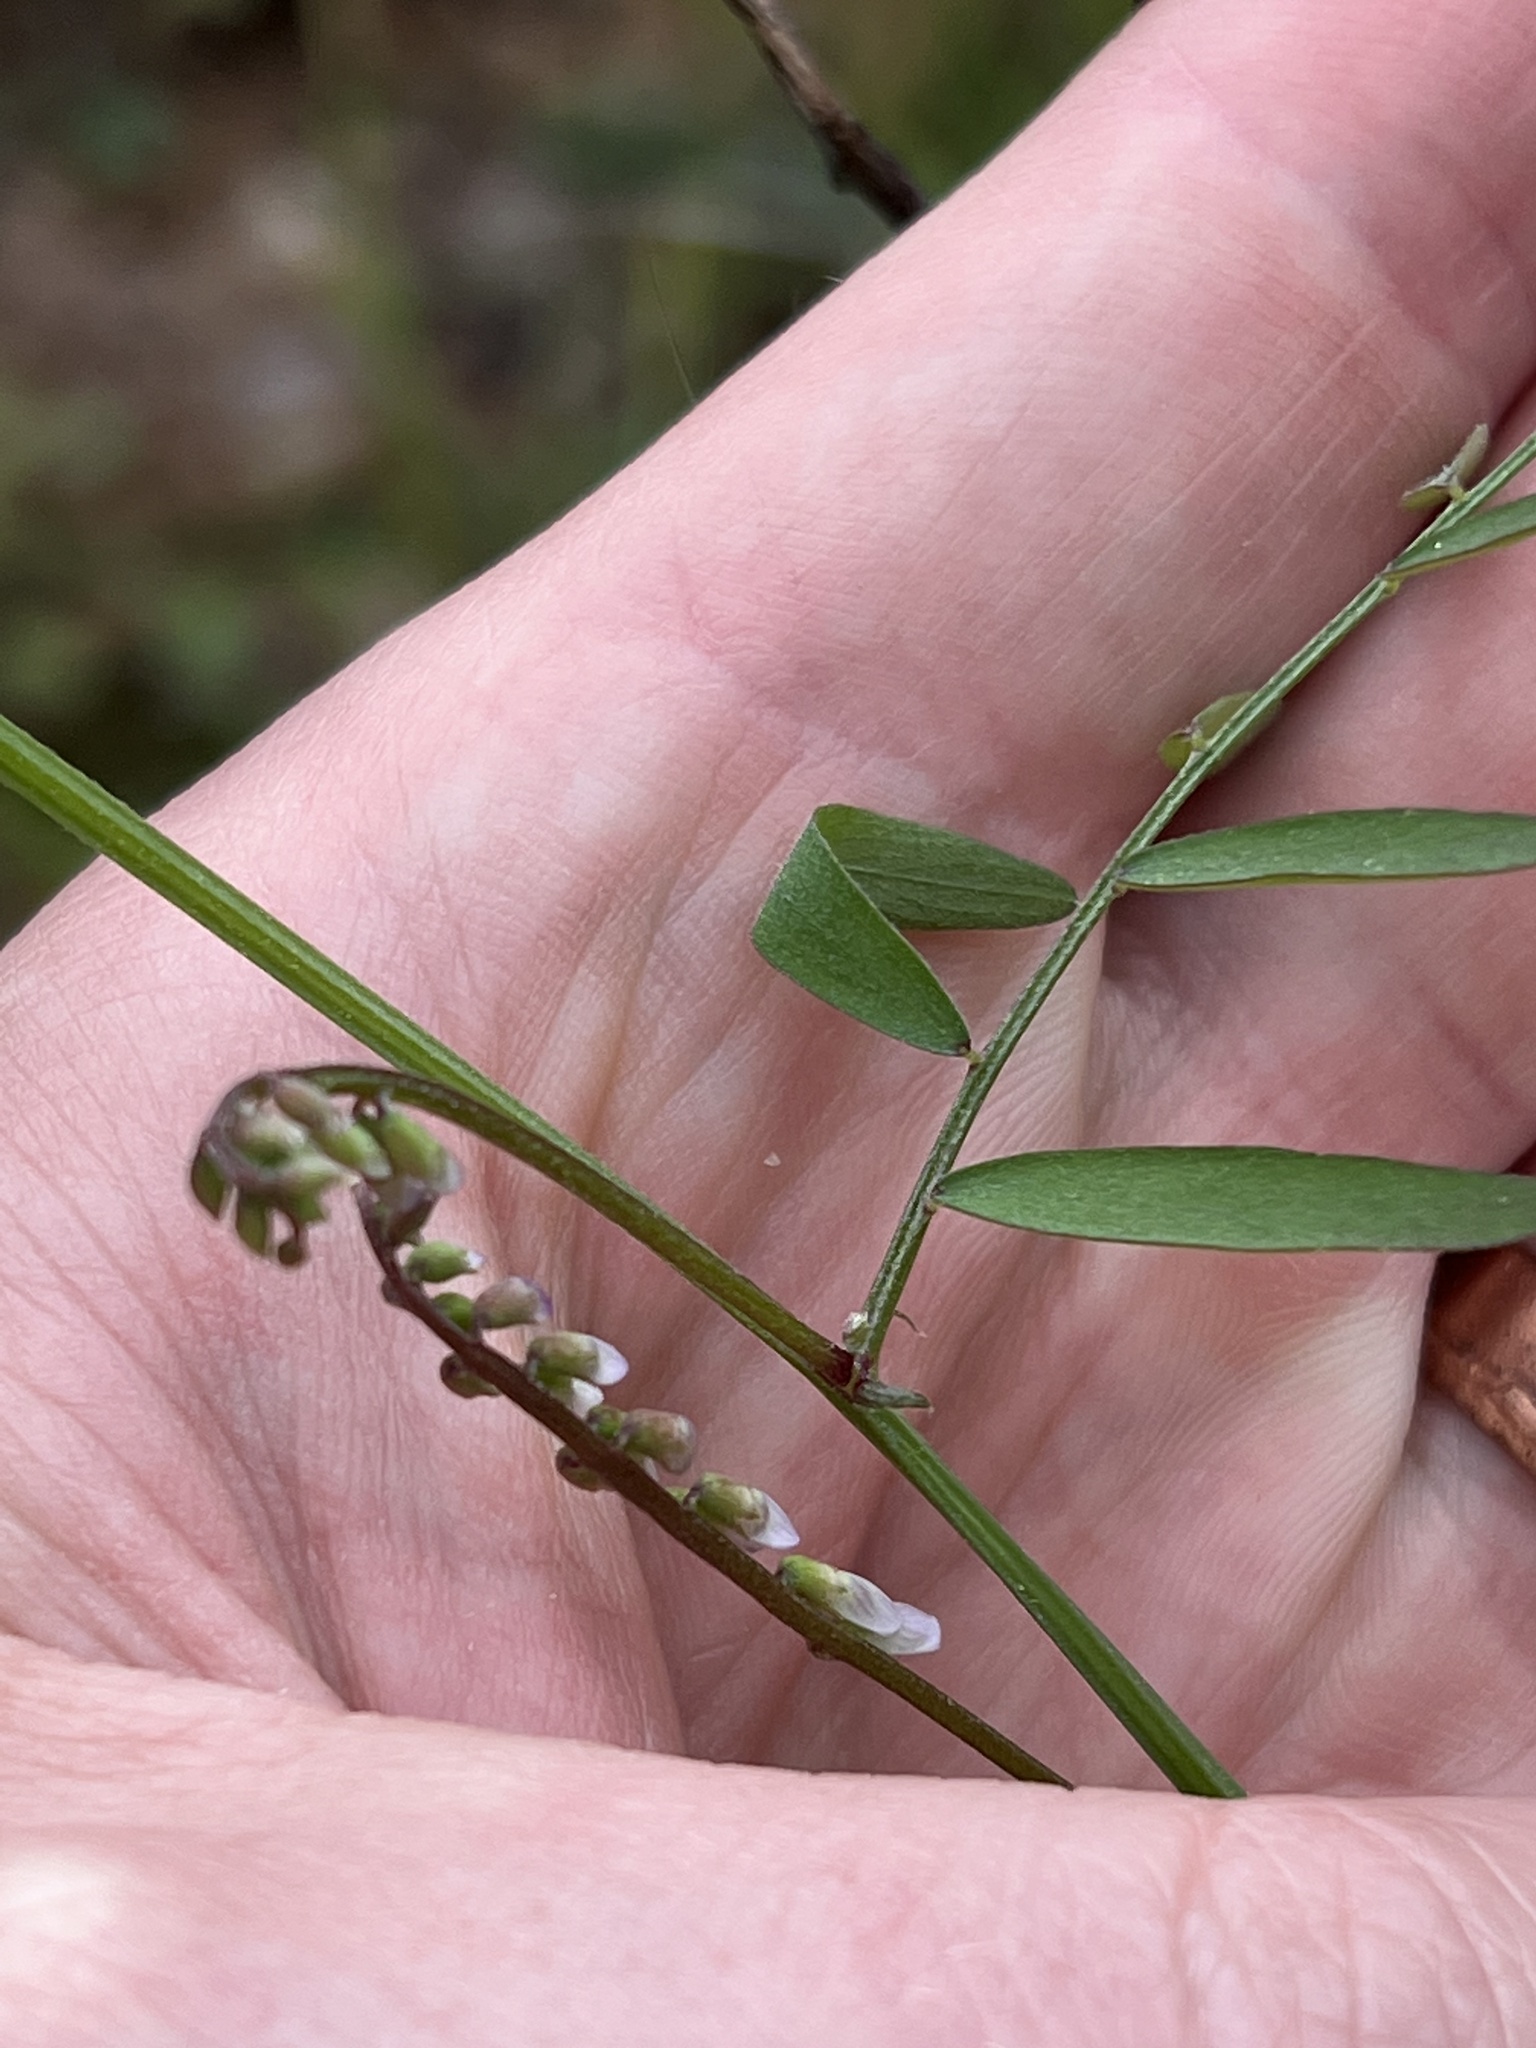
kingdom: Plantae
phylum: Tracheophyta
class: Magnoliopsida
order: Fabales
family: Fabaceae
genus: Vicia
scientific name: Vicia caroliniana
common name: Carolina vetch
